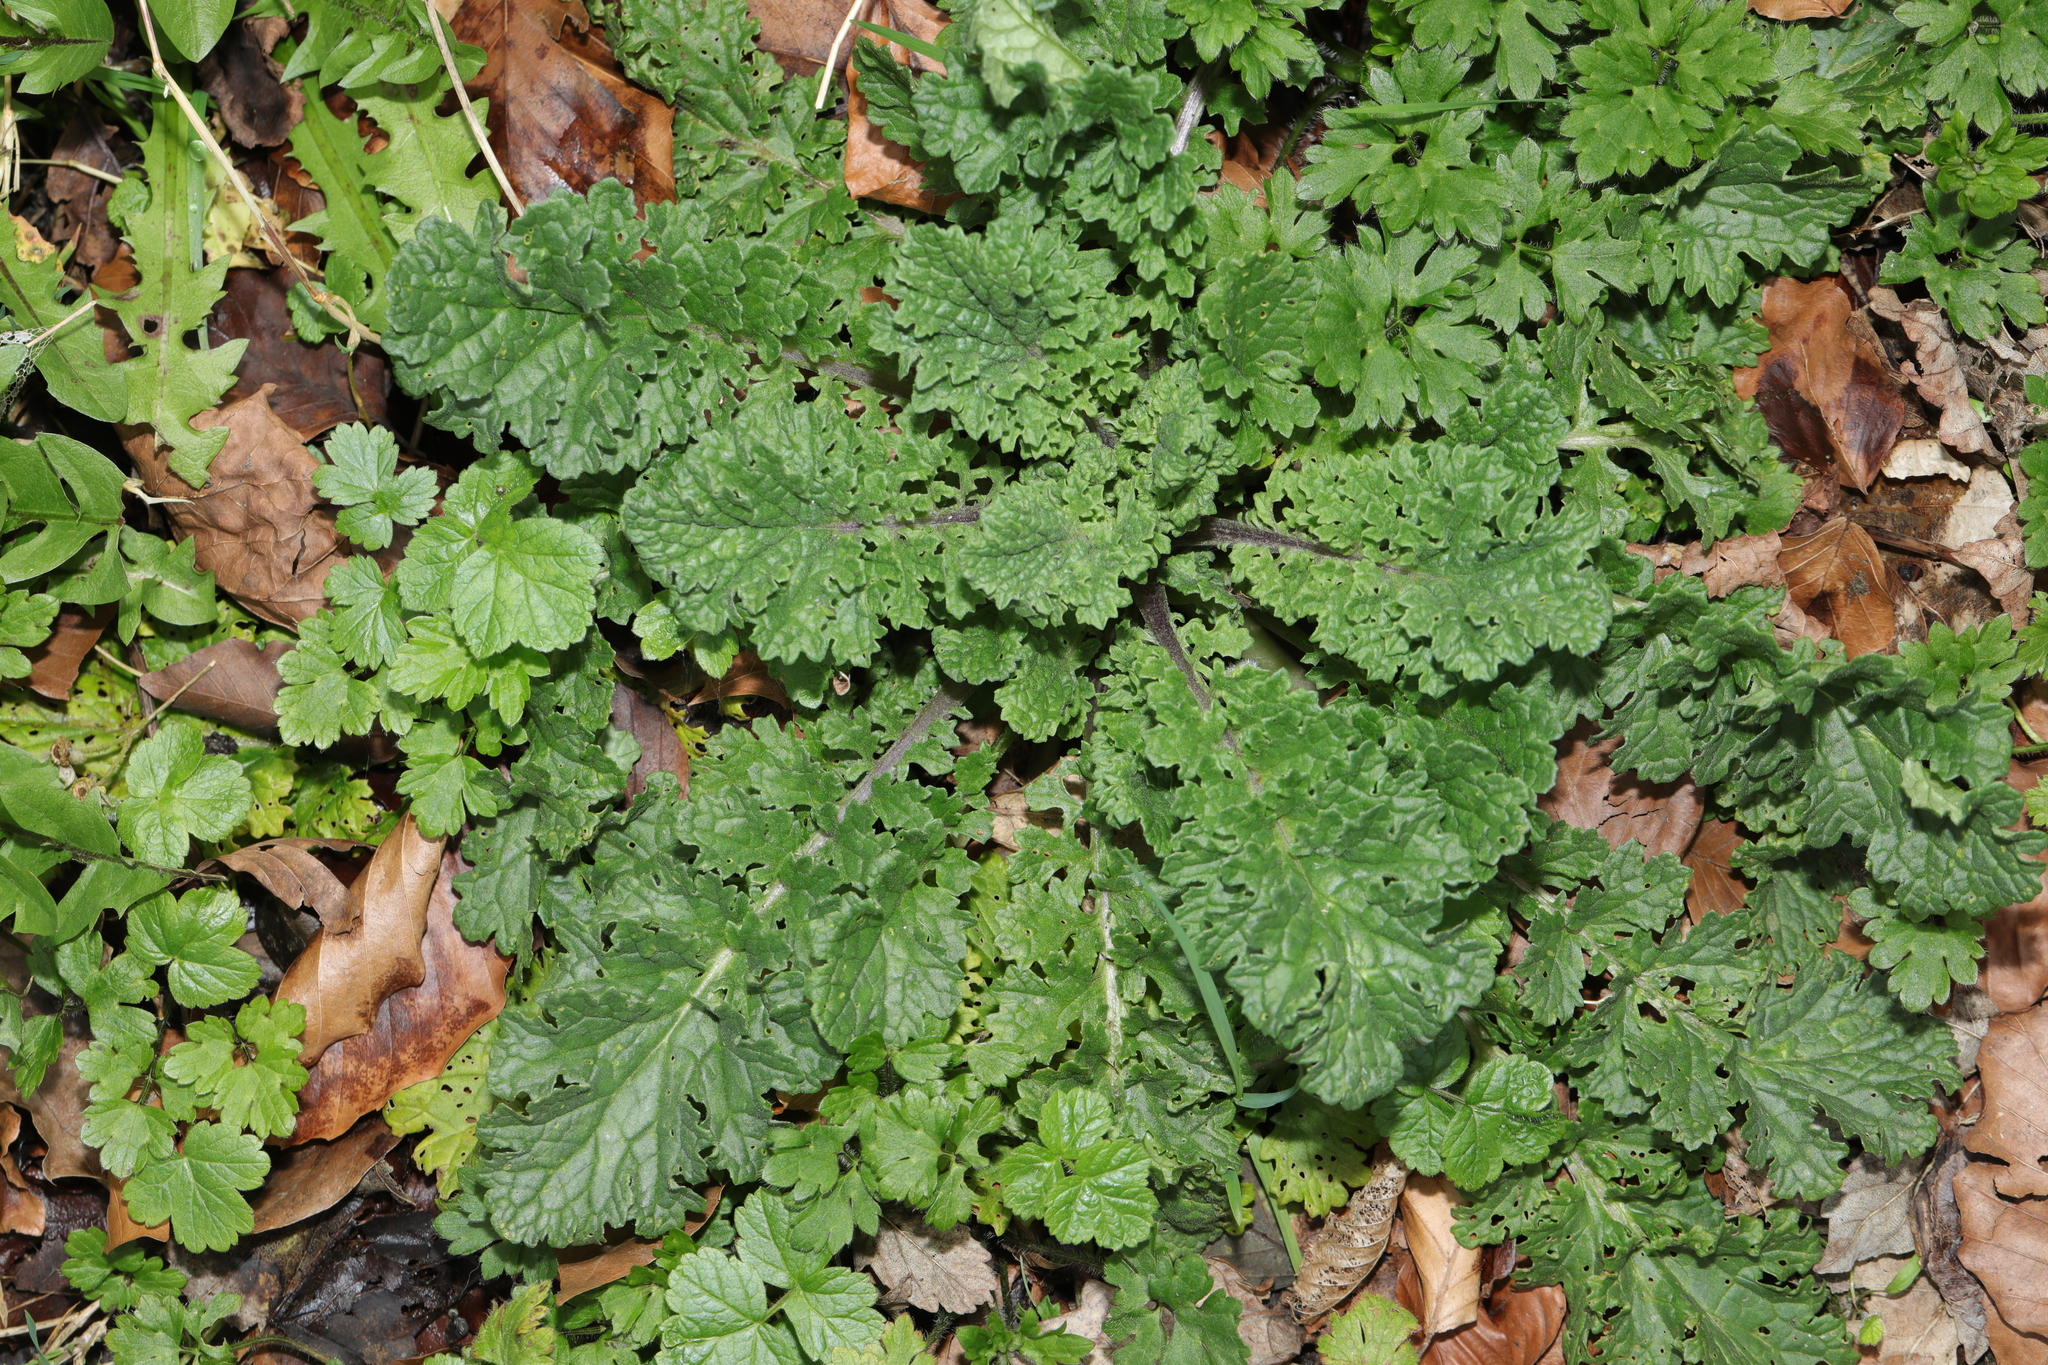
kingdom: Plantae
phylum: Tracheophyta
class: Magnoliopsida
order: Asterales
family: Asteraceae
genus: Jacobaea
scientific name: Jacobaea vulgaris
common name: Stinking willie
